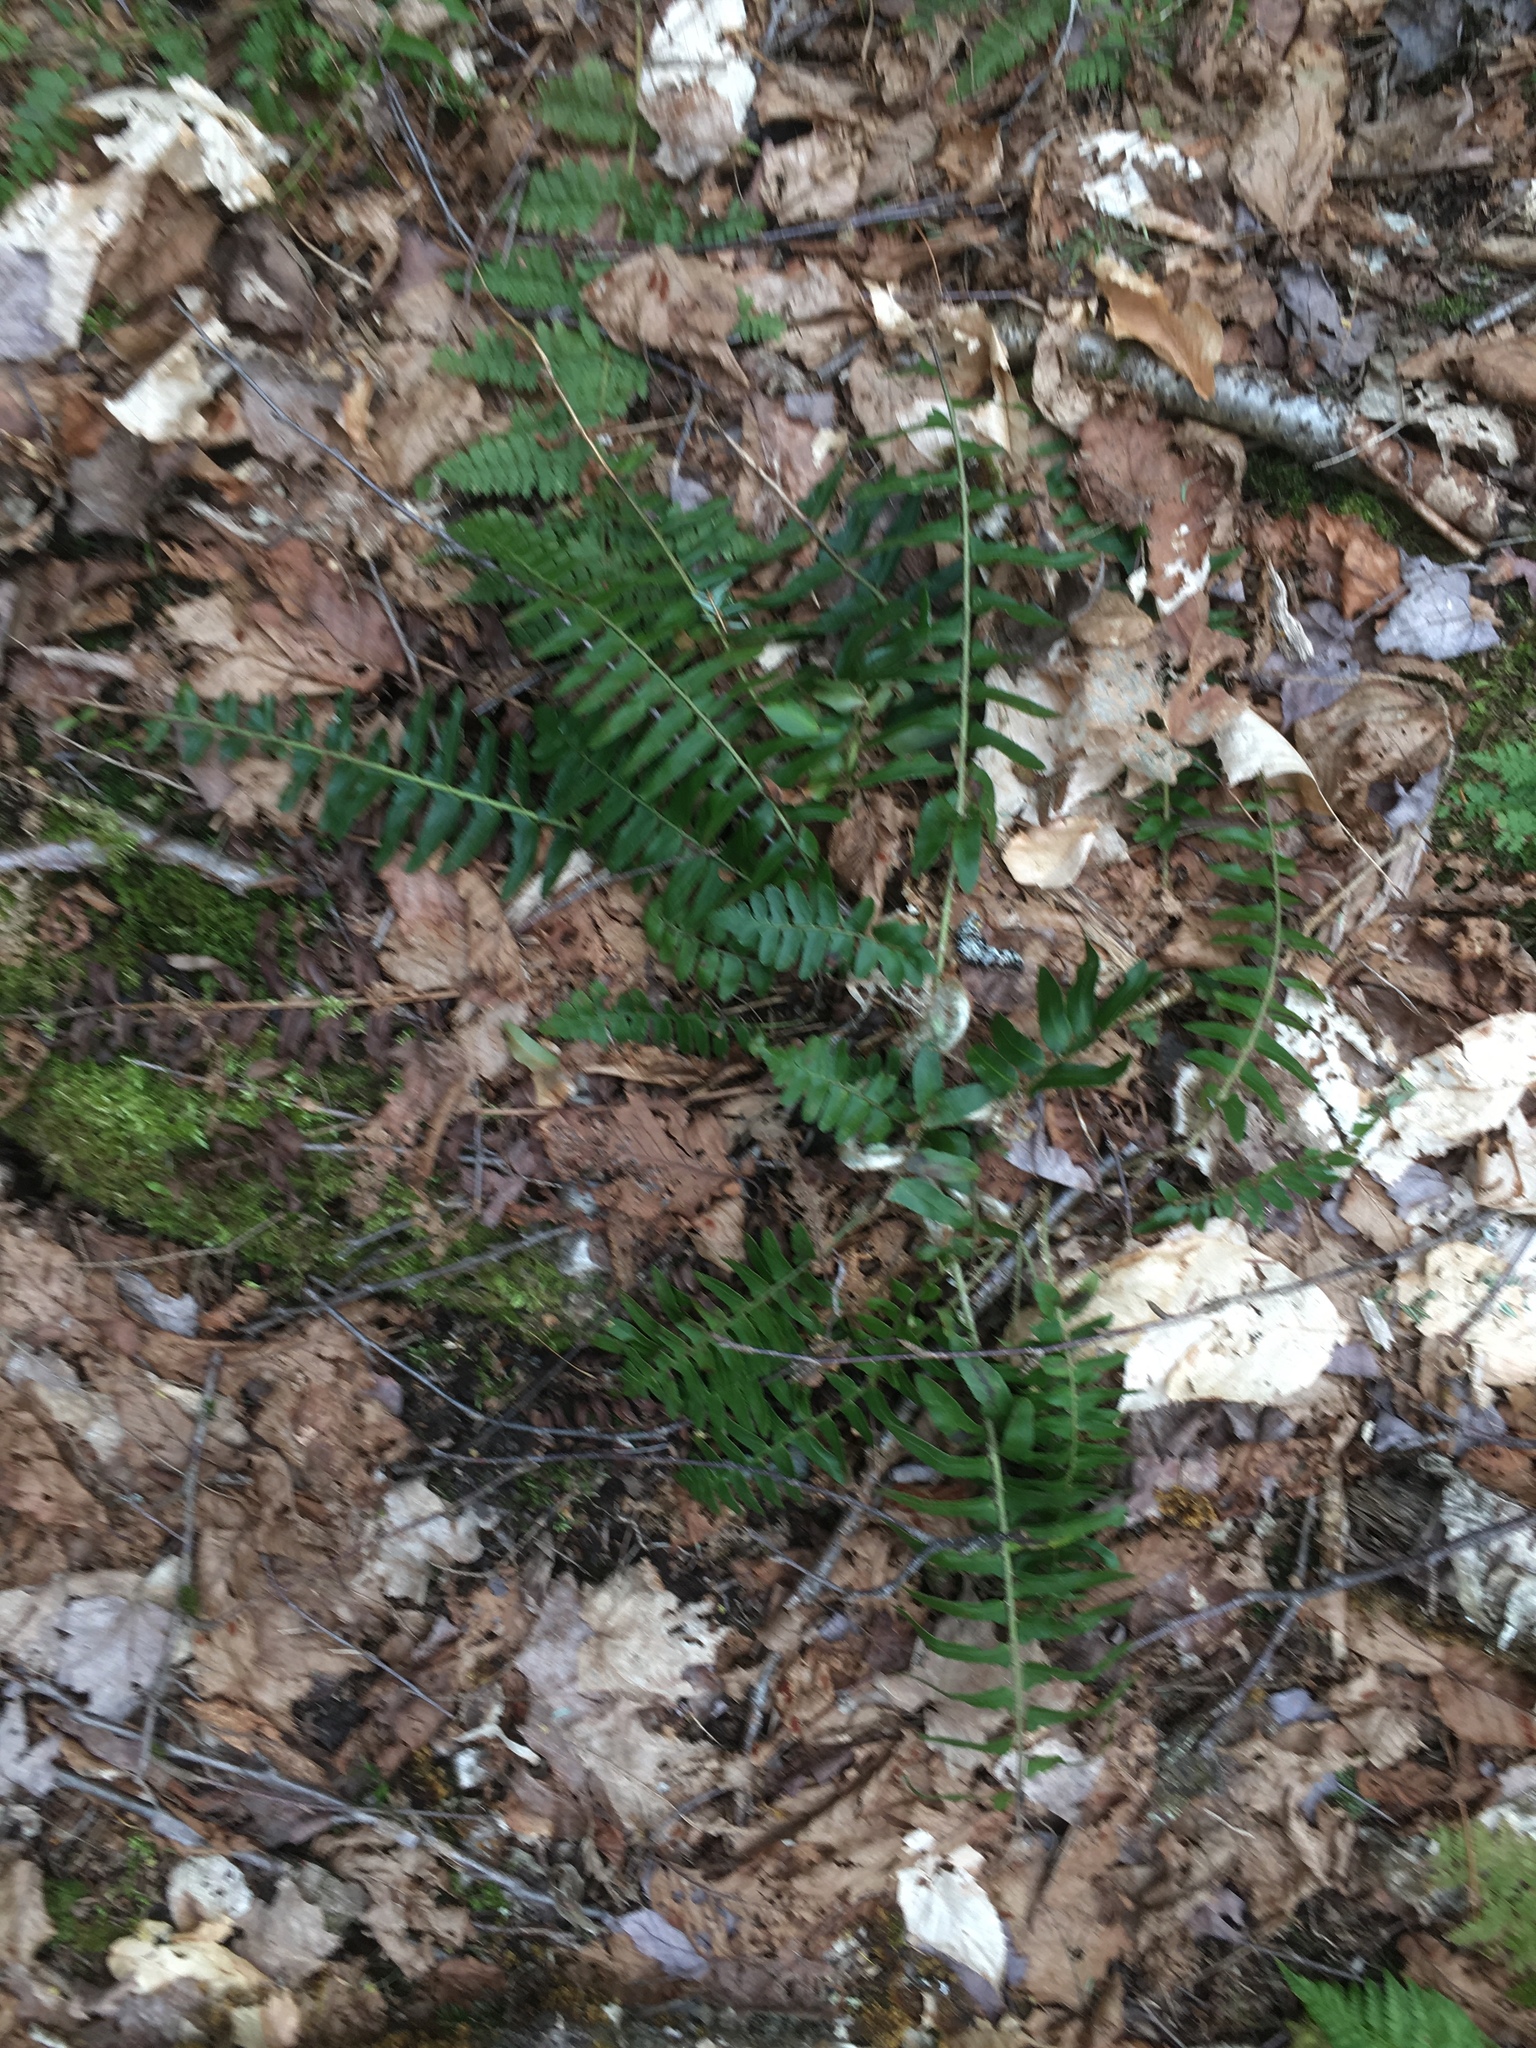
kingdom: Plantae
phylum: Tracheophyta
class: Polypodiopsida
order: Polypodiales
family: Dryopteridaceae
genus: Polystichum
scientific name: Polystichum acrostichoides
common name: Christmas fern
